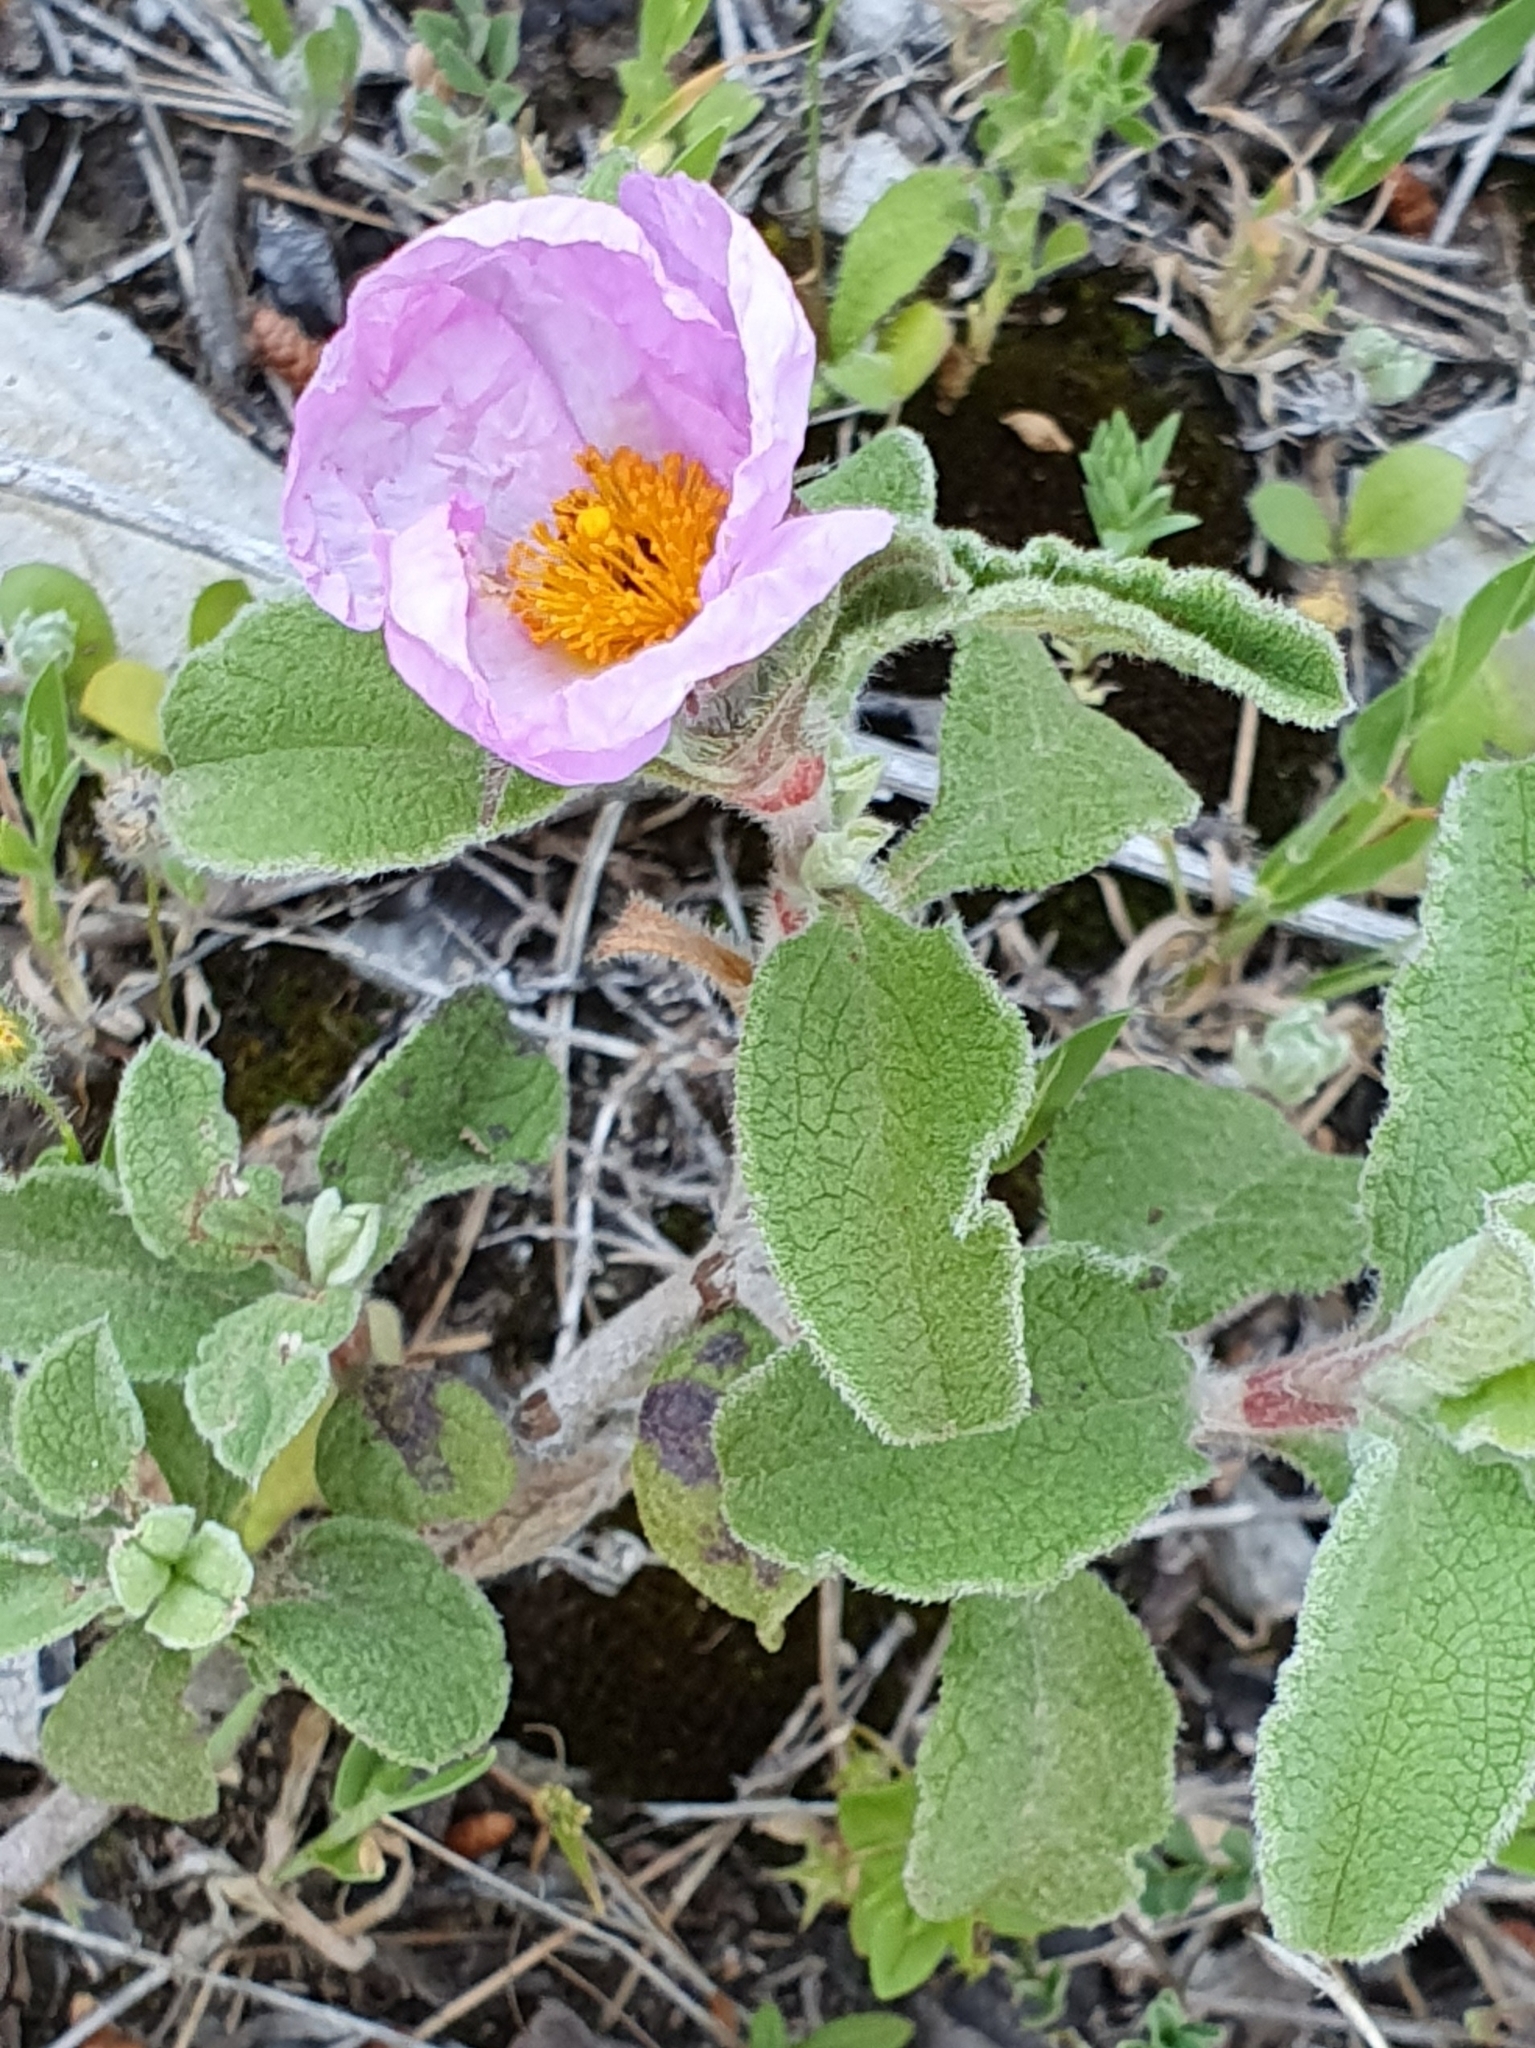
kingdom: Plantae
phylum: Tracheophyta
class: Magnoliopsida
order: Malvales
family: Cistaceae
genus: Cistus
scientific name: Cistus creticus
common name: Cretan rockrose
